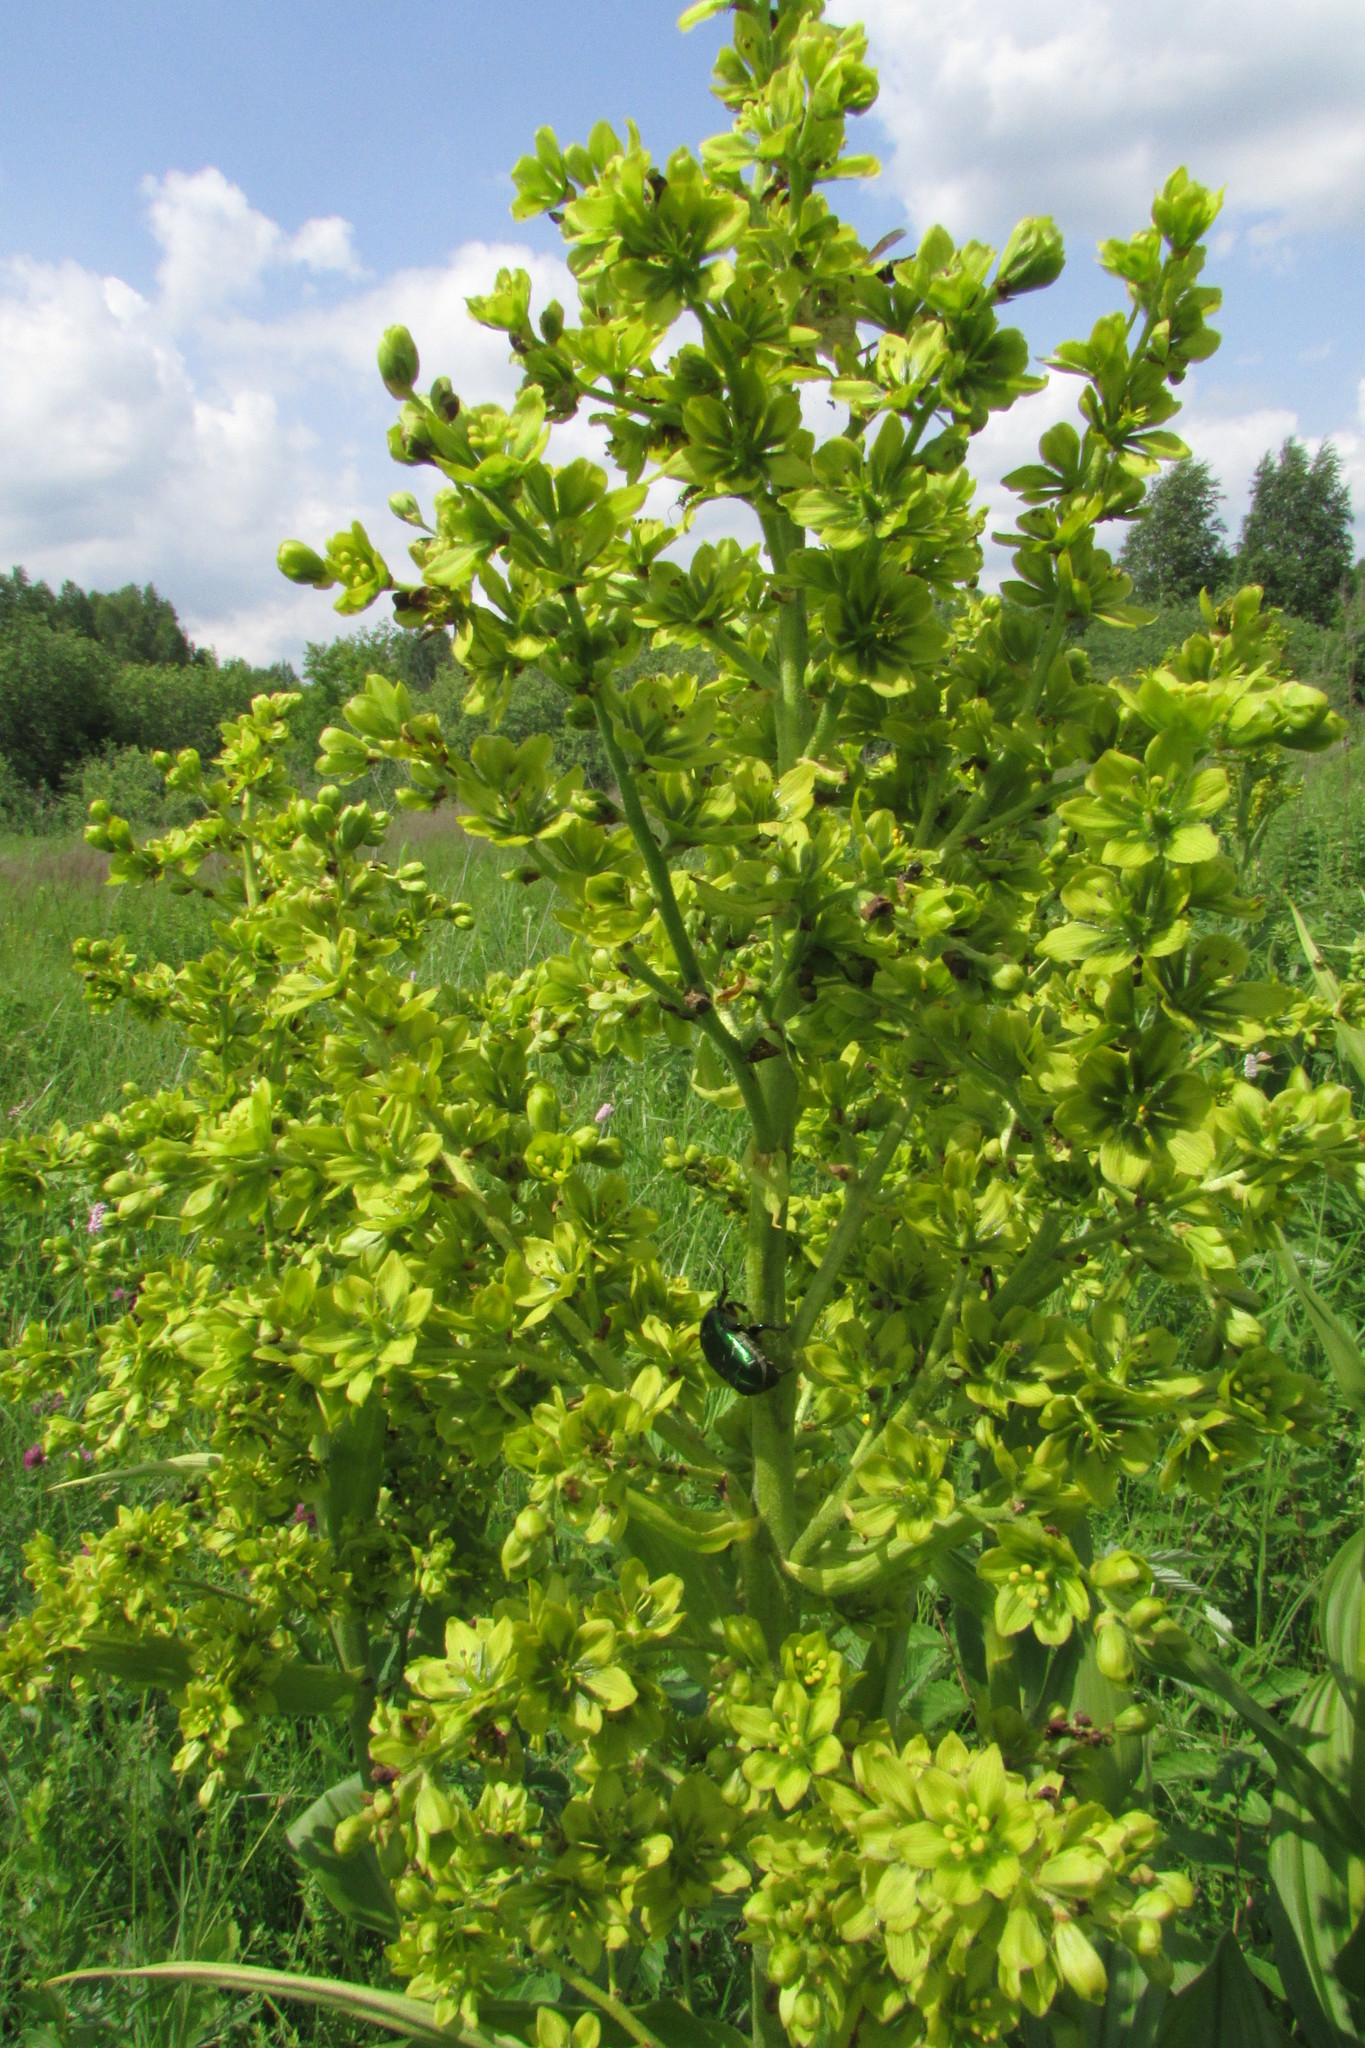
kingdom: Plantae
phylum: Tracheophyta
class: Liliopsida
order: Liliales
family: Melanthiaceae
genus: Veratrum
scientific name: Veratrum lobelianum
